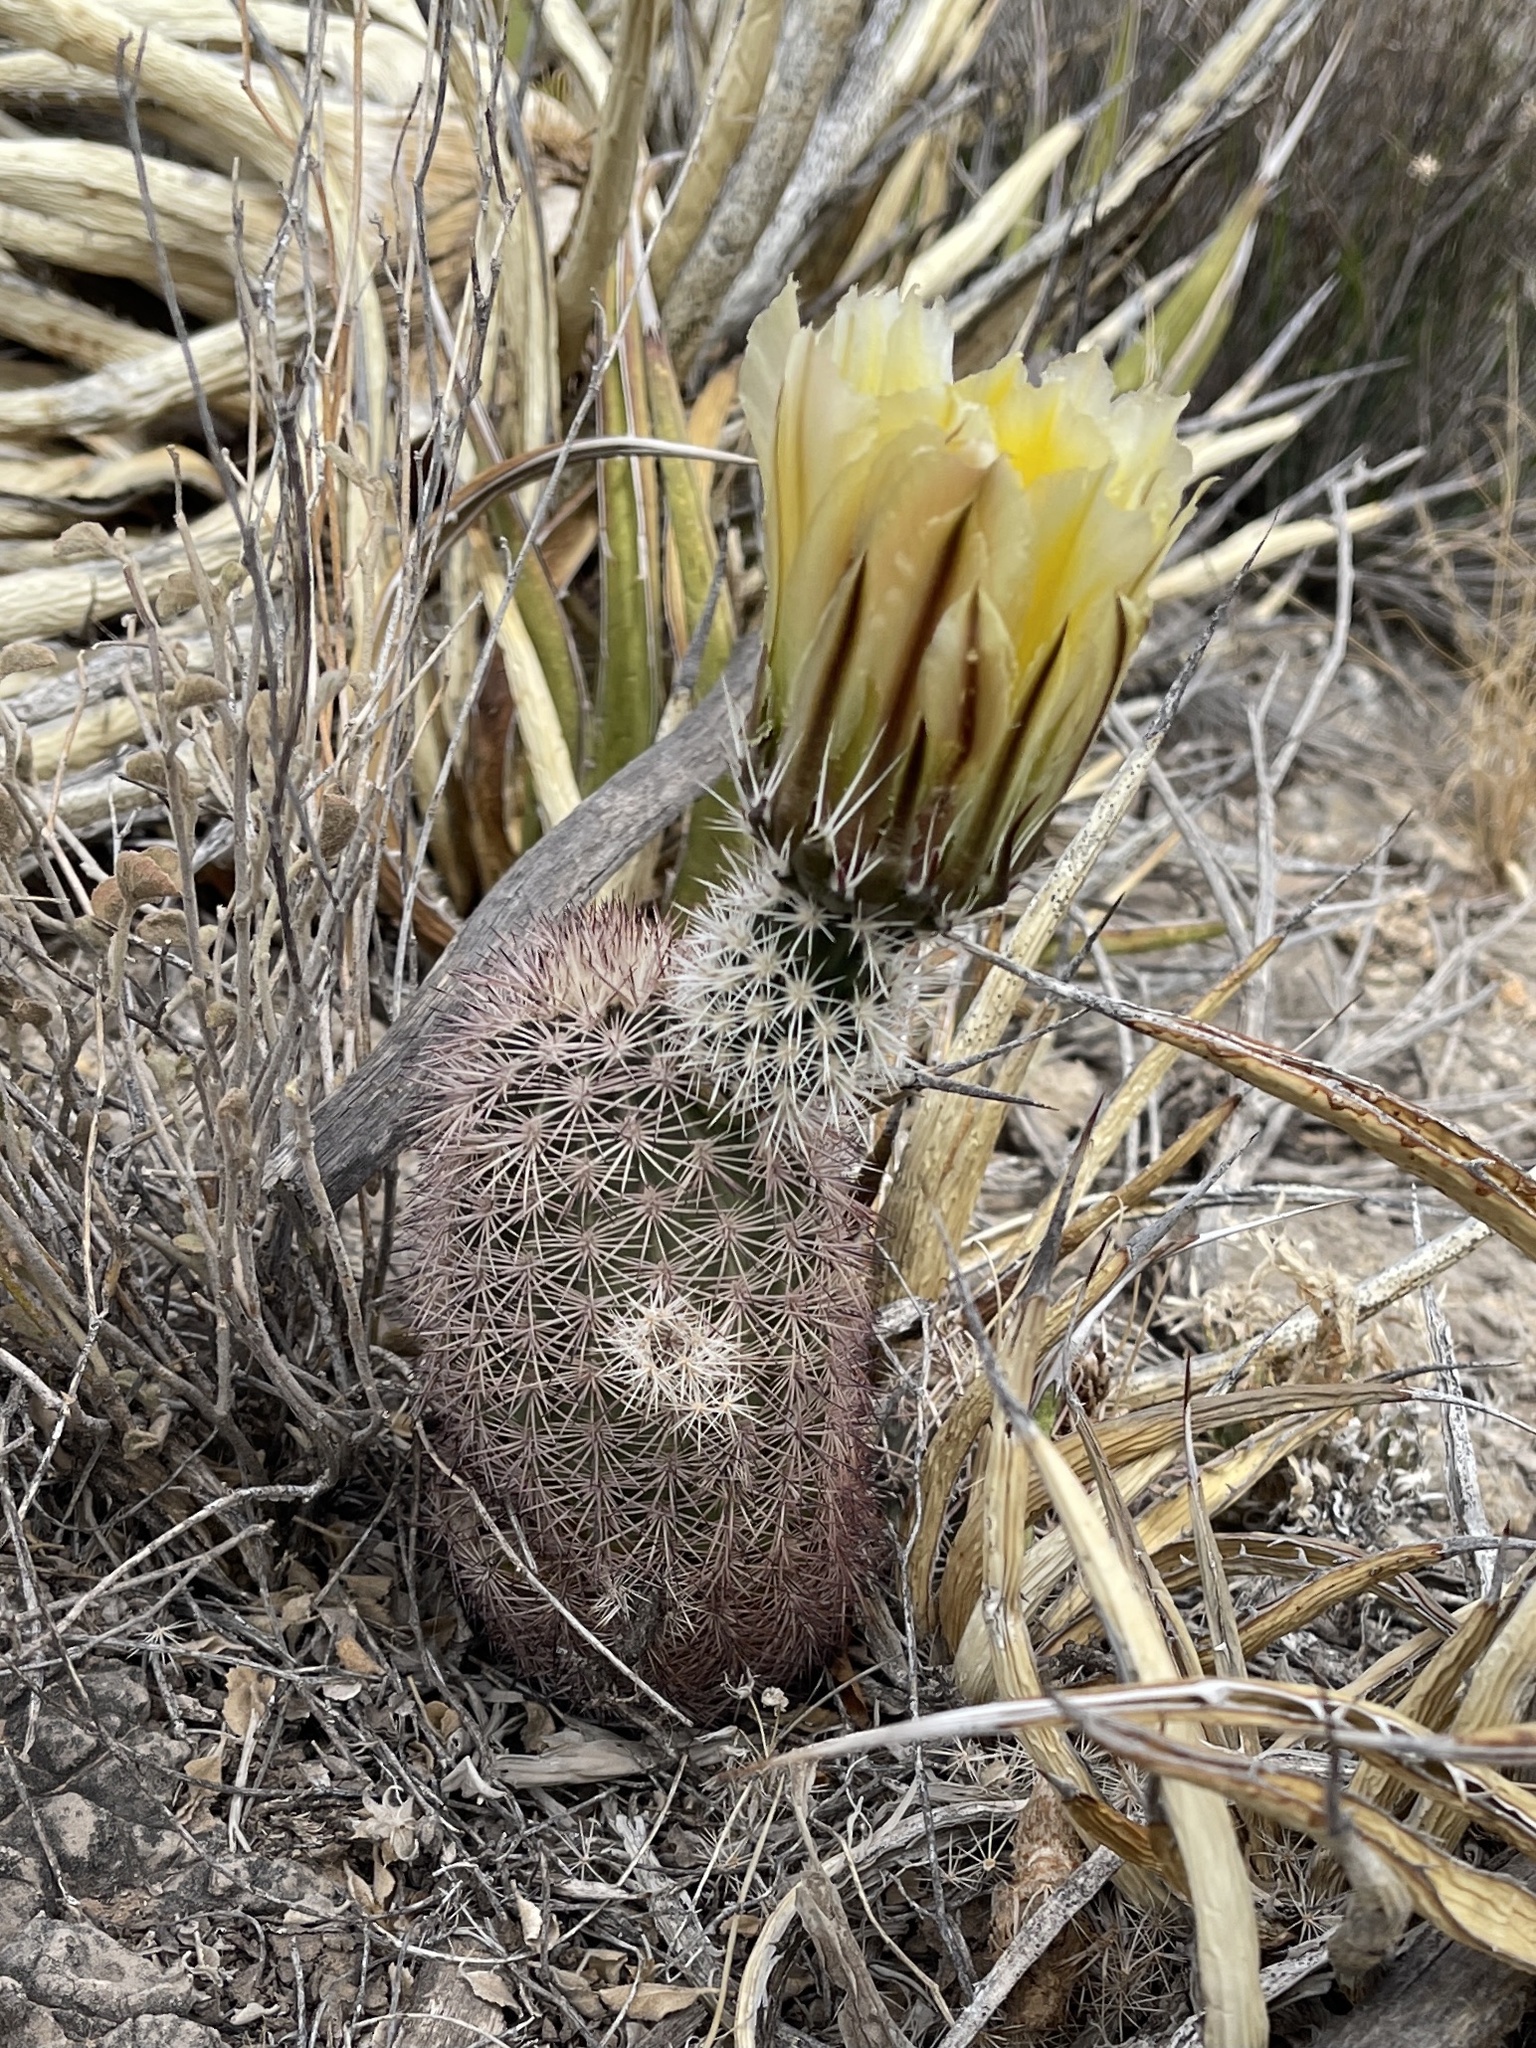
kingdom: Plantae
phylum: Tracheophyta
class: Magnoliopsida
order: Caryophyllales
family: Cactaceae
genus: Echinocereus
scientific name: Echinocereus dasyacanthus
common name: Spiny hedgehog cactus
